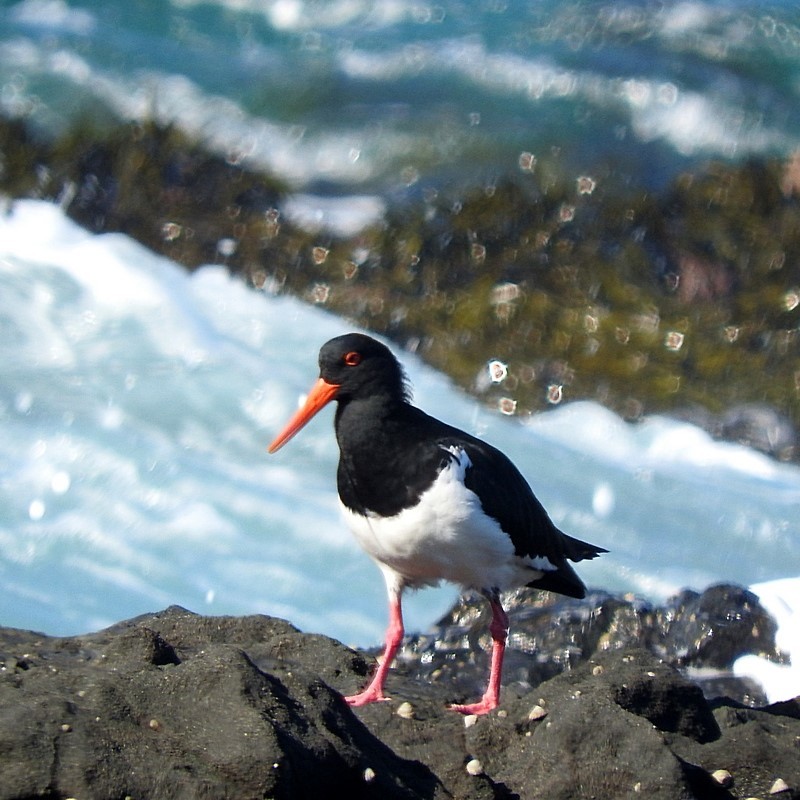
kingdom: Animalia
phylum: Chordata
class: Aves
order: Charadriiformes
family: Haematopodidae
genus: Haematopus
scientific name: Haematopus longirostris
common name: Pied oystercatcher
